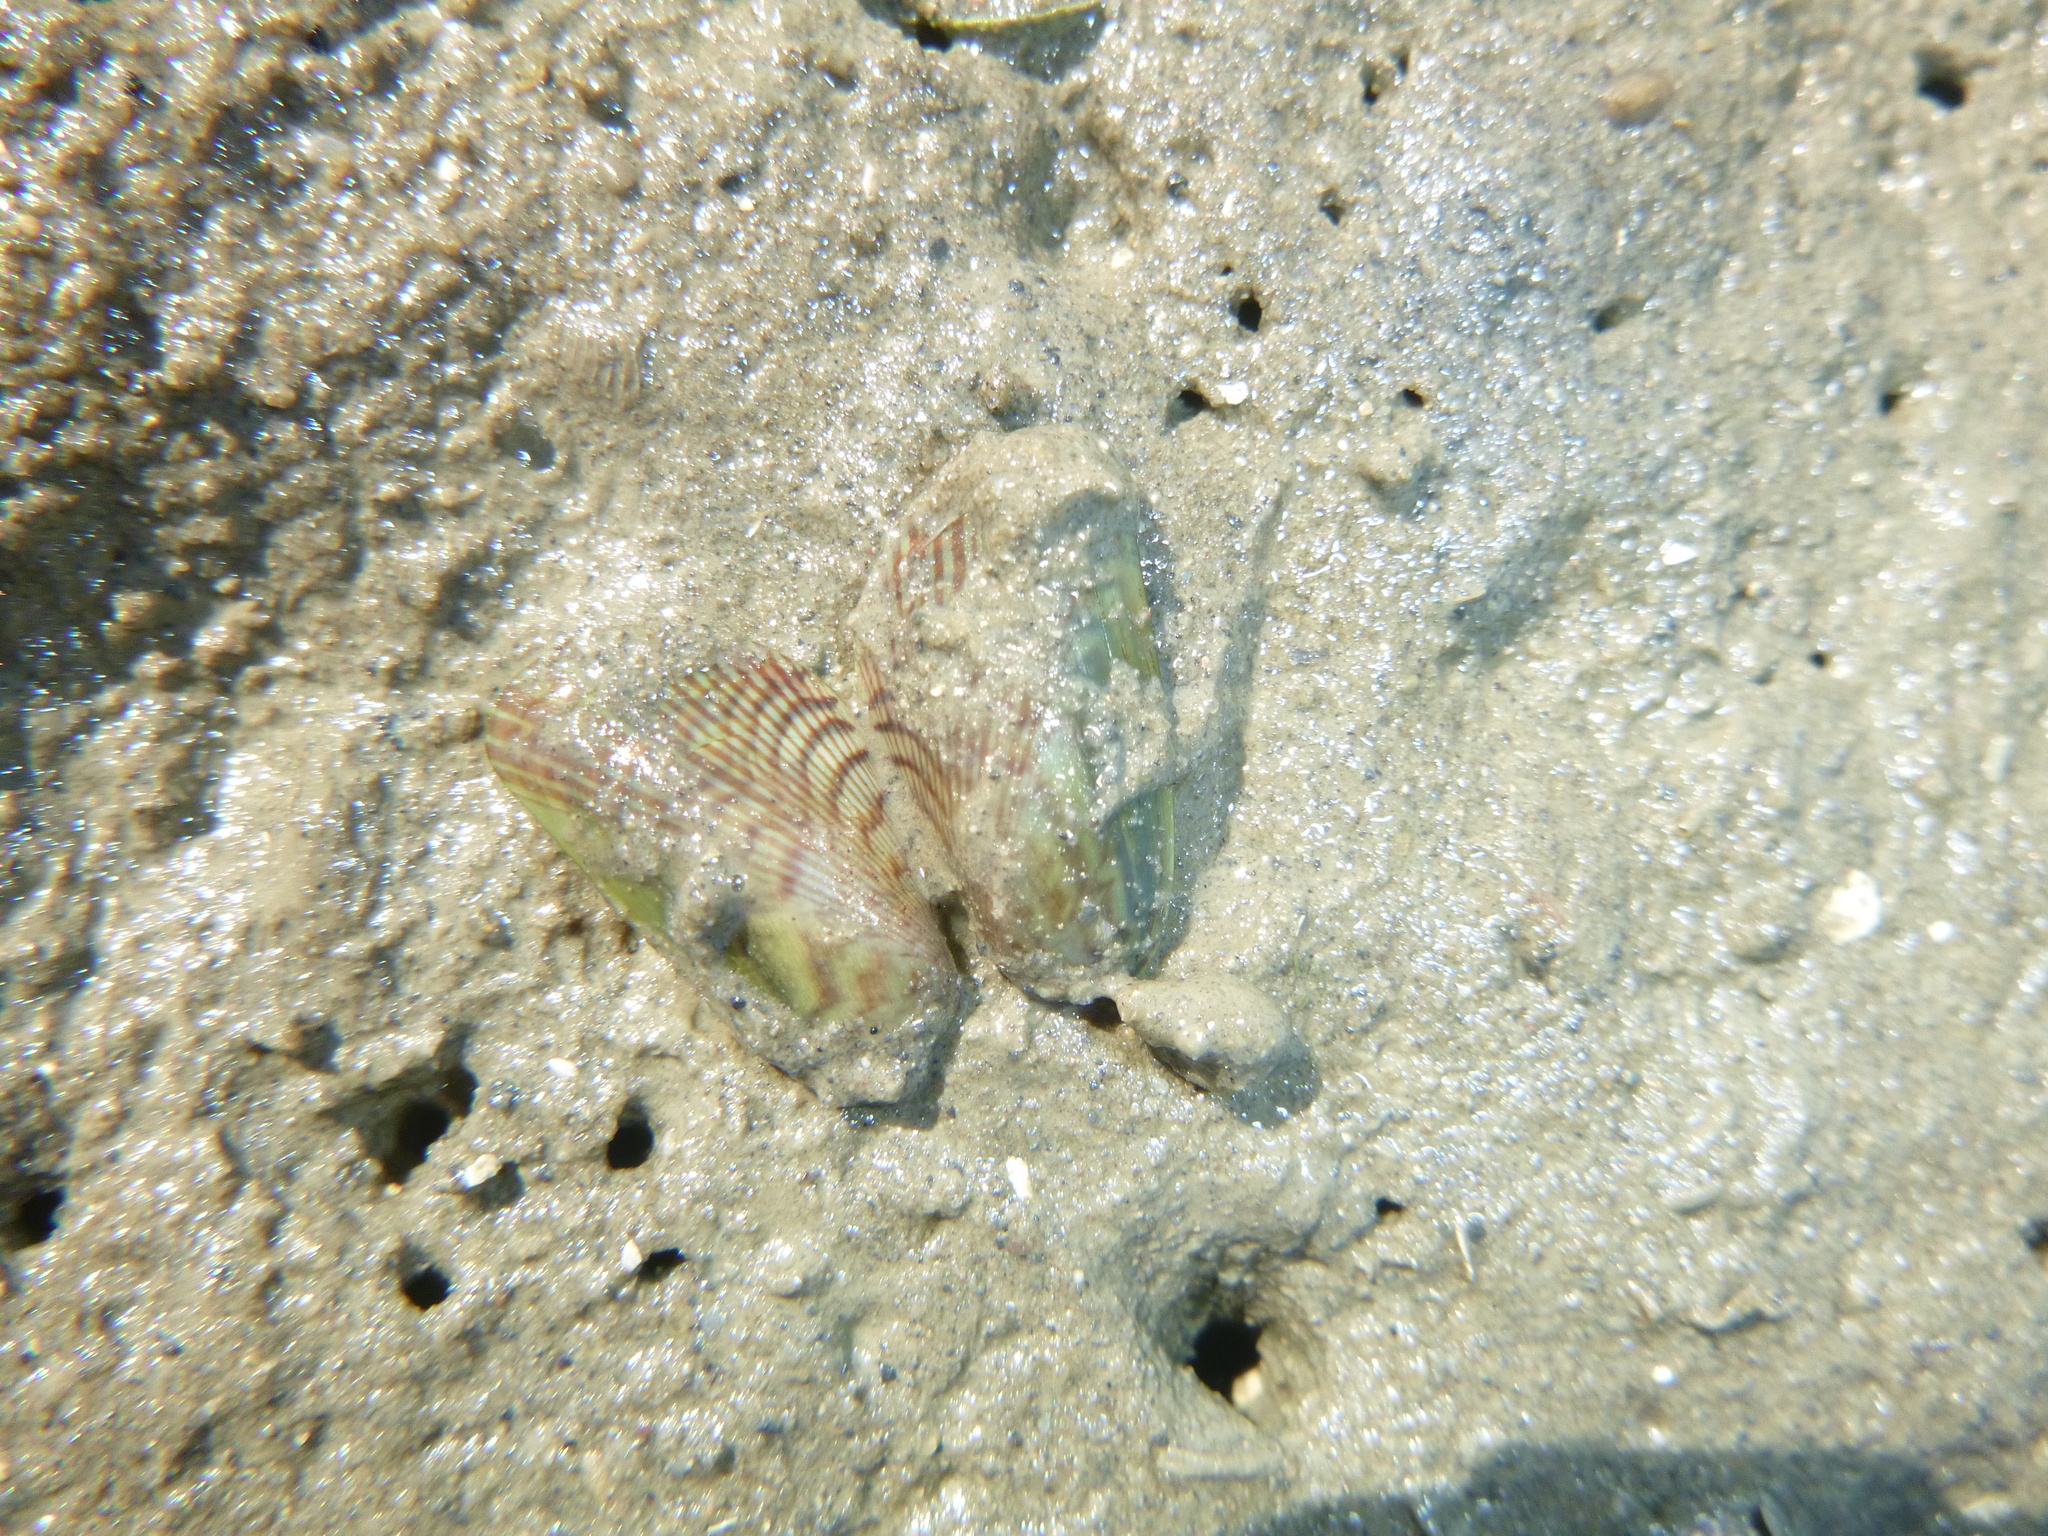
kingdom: Animalia
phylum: Mollusca
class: Bivalvia
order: Mytilida
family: Mytilidae
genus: Arcuatula
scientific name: Arcuatula senhousia
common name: Asian mussel
